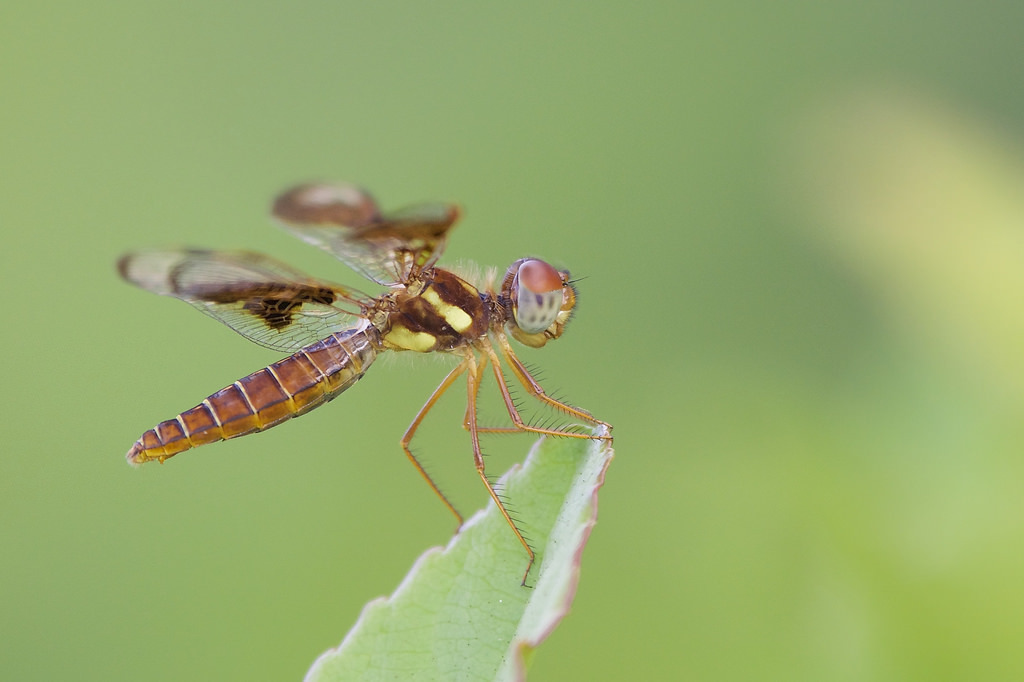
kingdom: Animalia
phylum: Arthropoda
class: Insecta
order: Odonata
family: Libellulidae
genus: Perithemis
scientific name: Perithemis tenera
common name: Eastern amberwing
